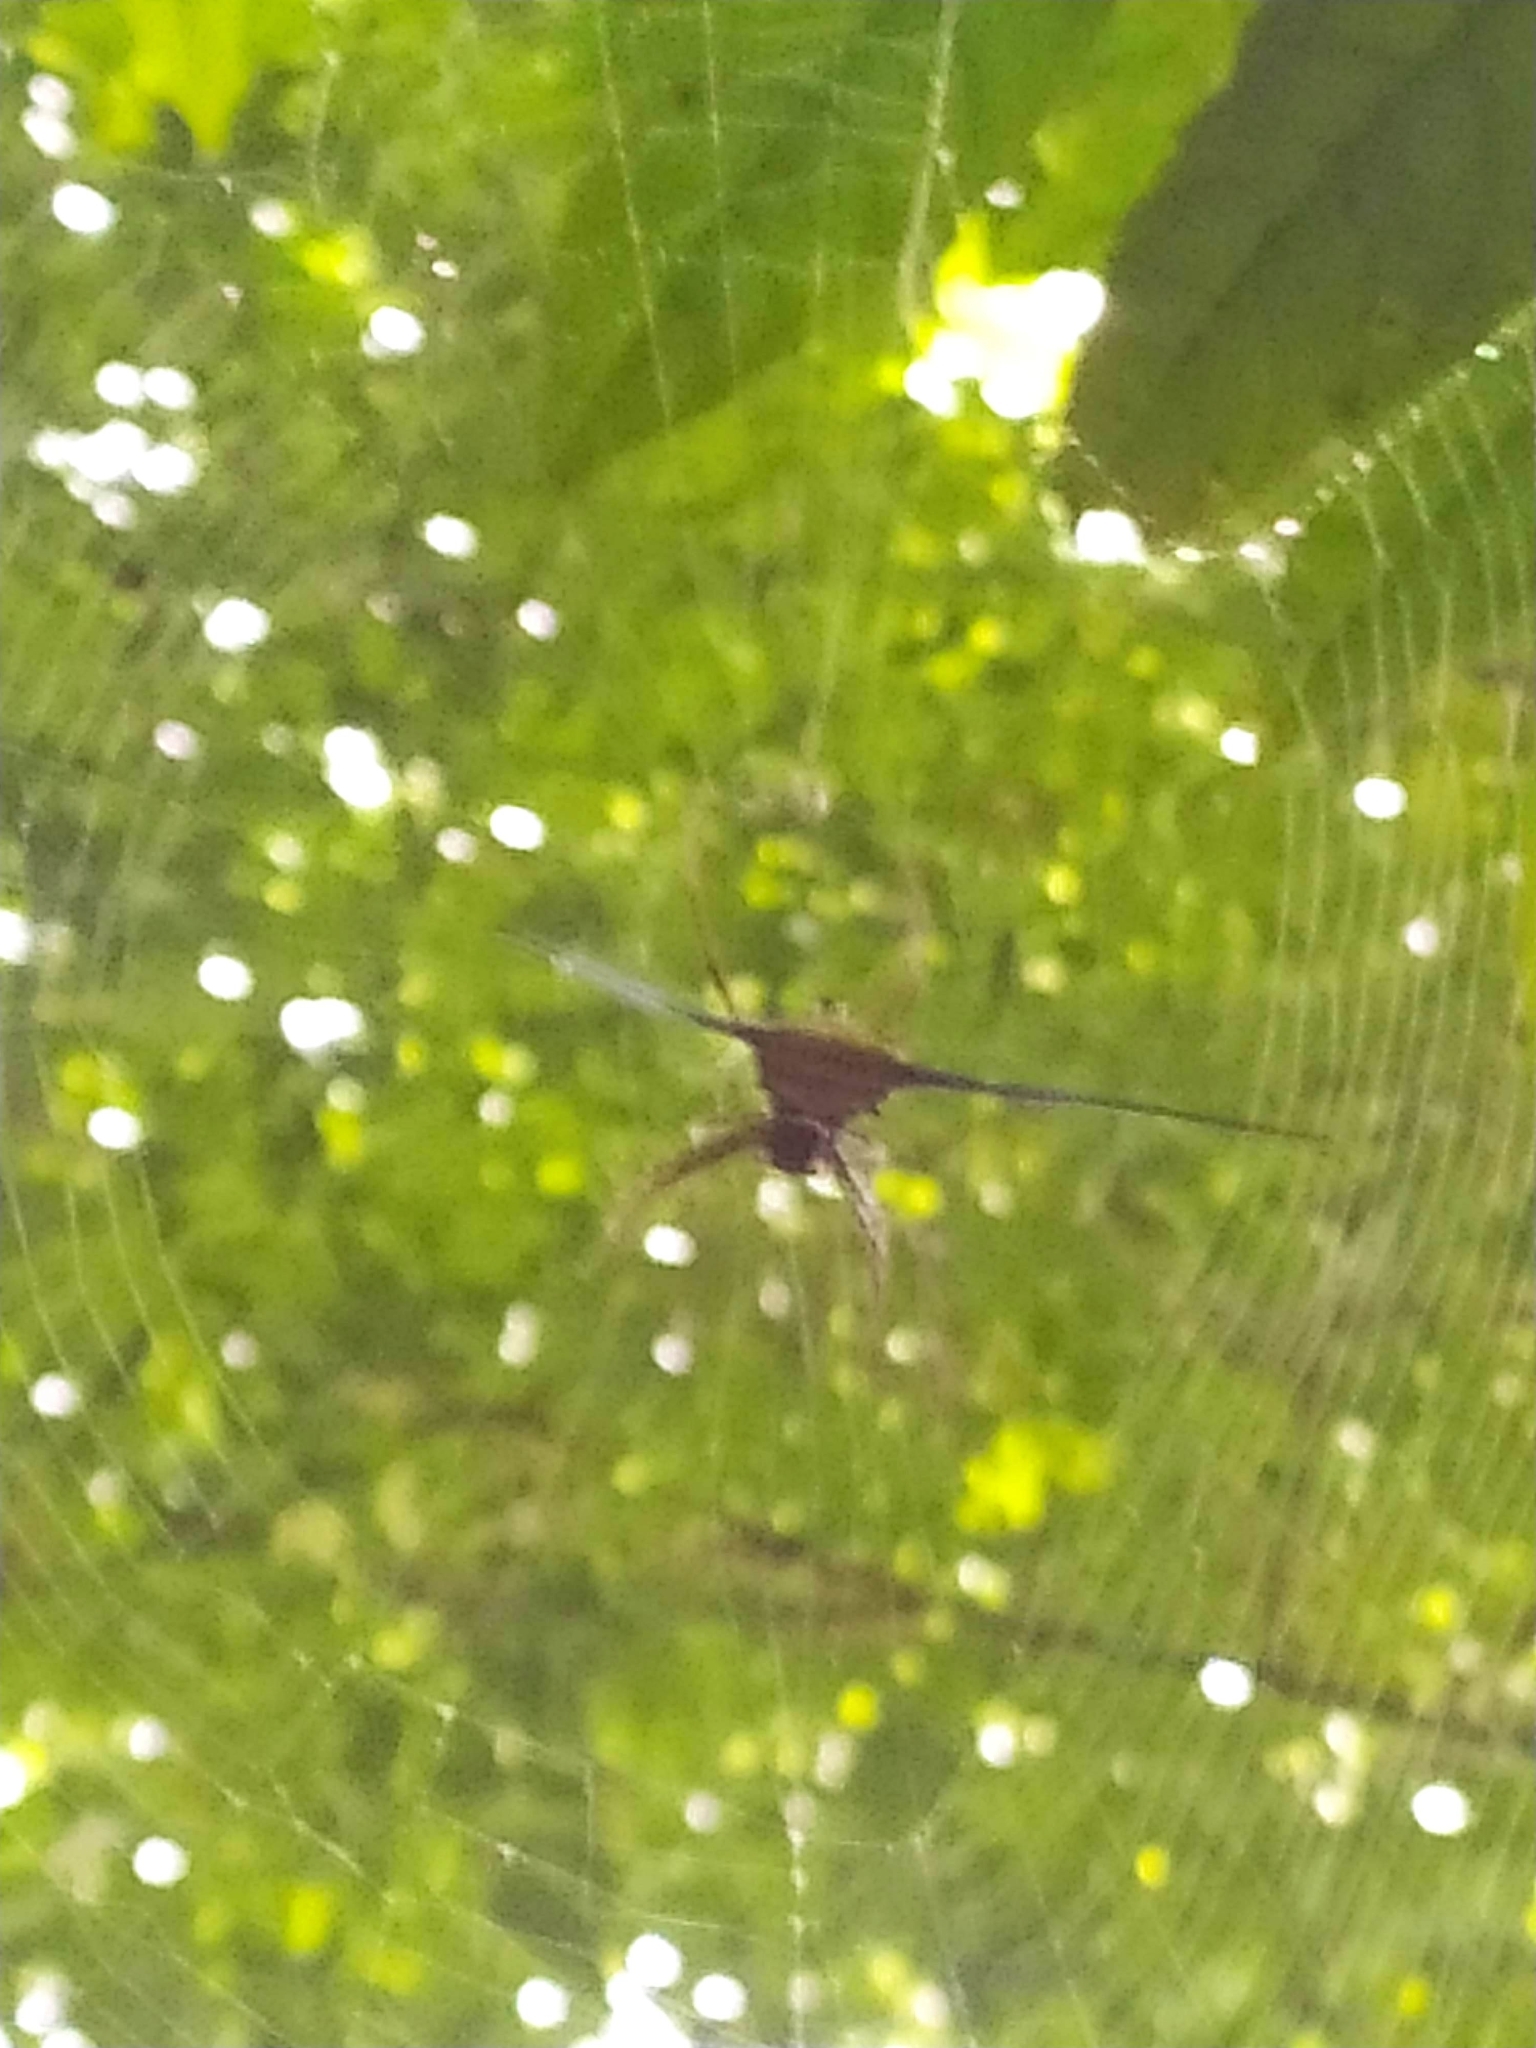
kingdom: Animalia
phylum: Arthropoda
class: Arachnida
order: Araneae
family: Araneidae
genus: Micrathena
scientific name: Micrathena cyanospina
